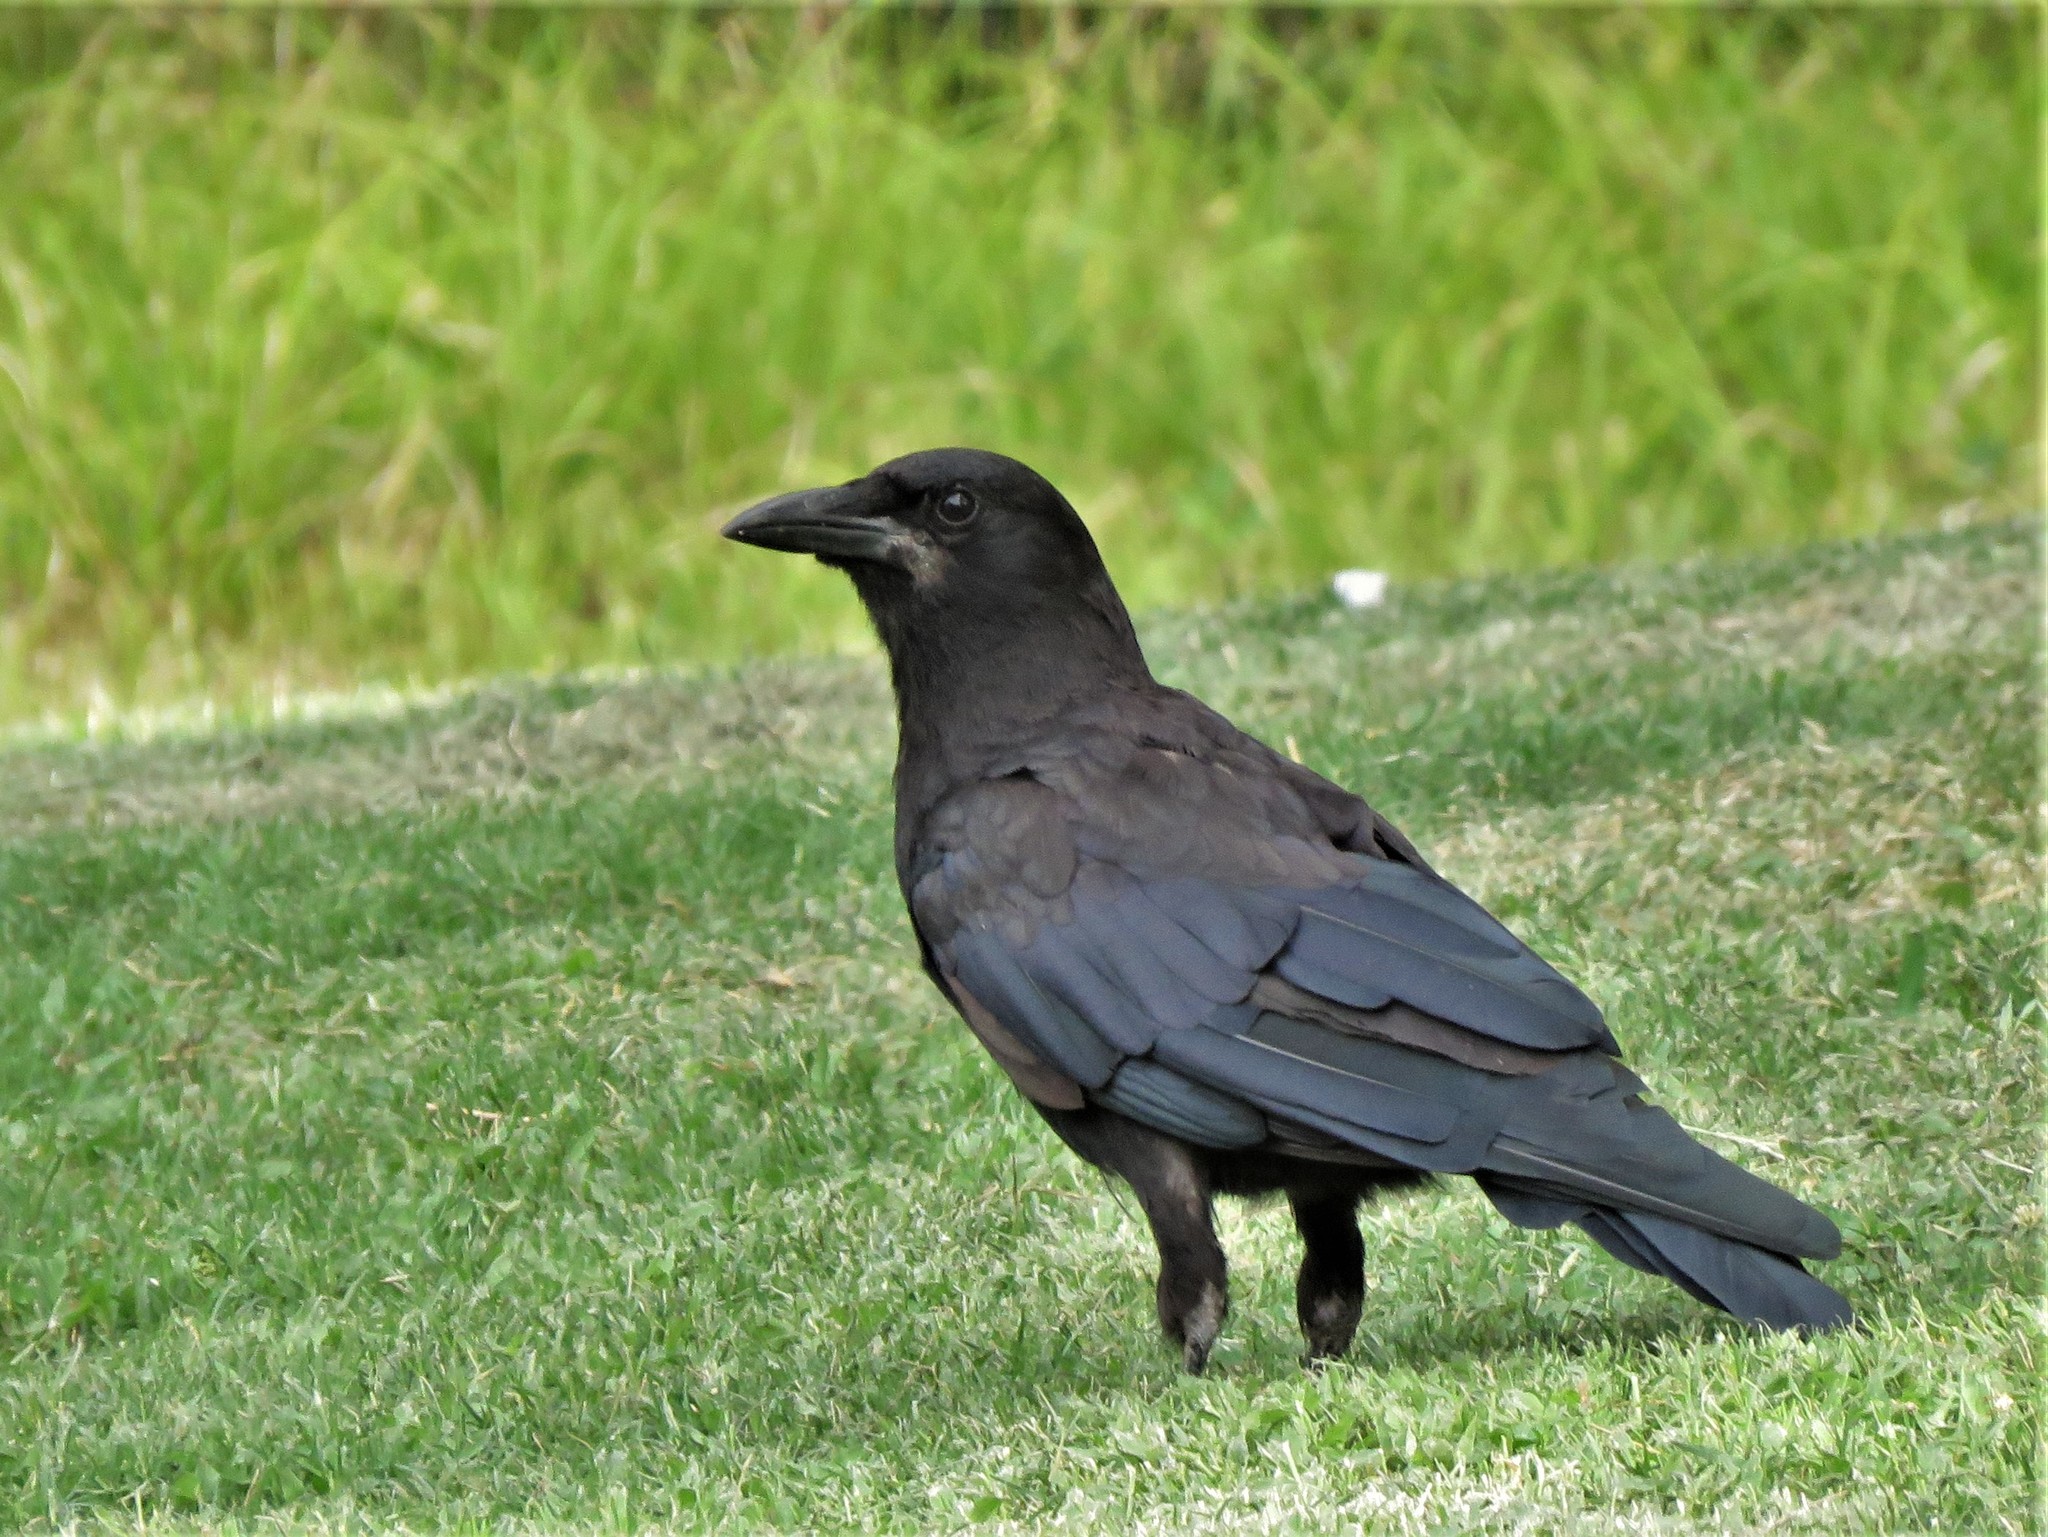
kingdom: Animalia
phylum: Chordata
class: Aves
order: Passeriformes
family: Corvidae
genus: Corvus
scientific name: Corvus brachyrhynchos
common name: American crow
